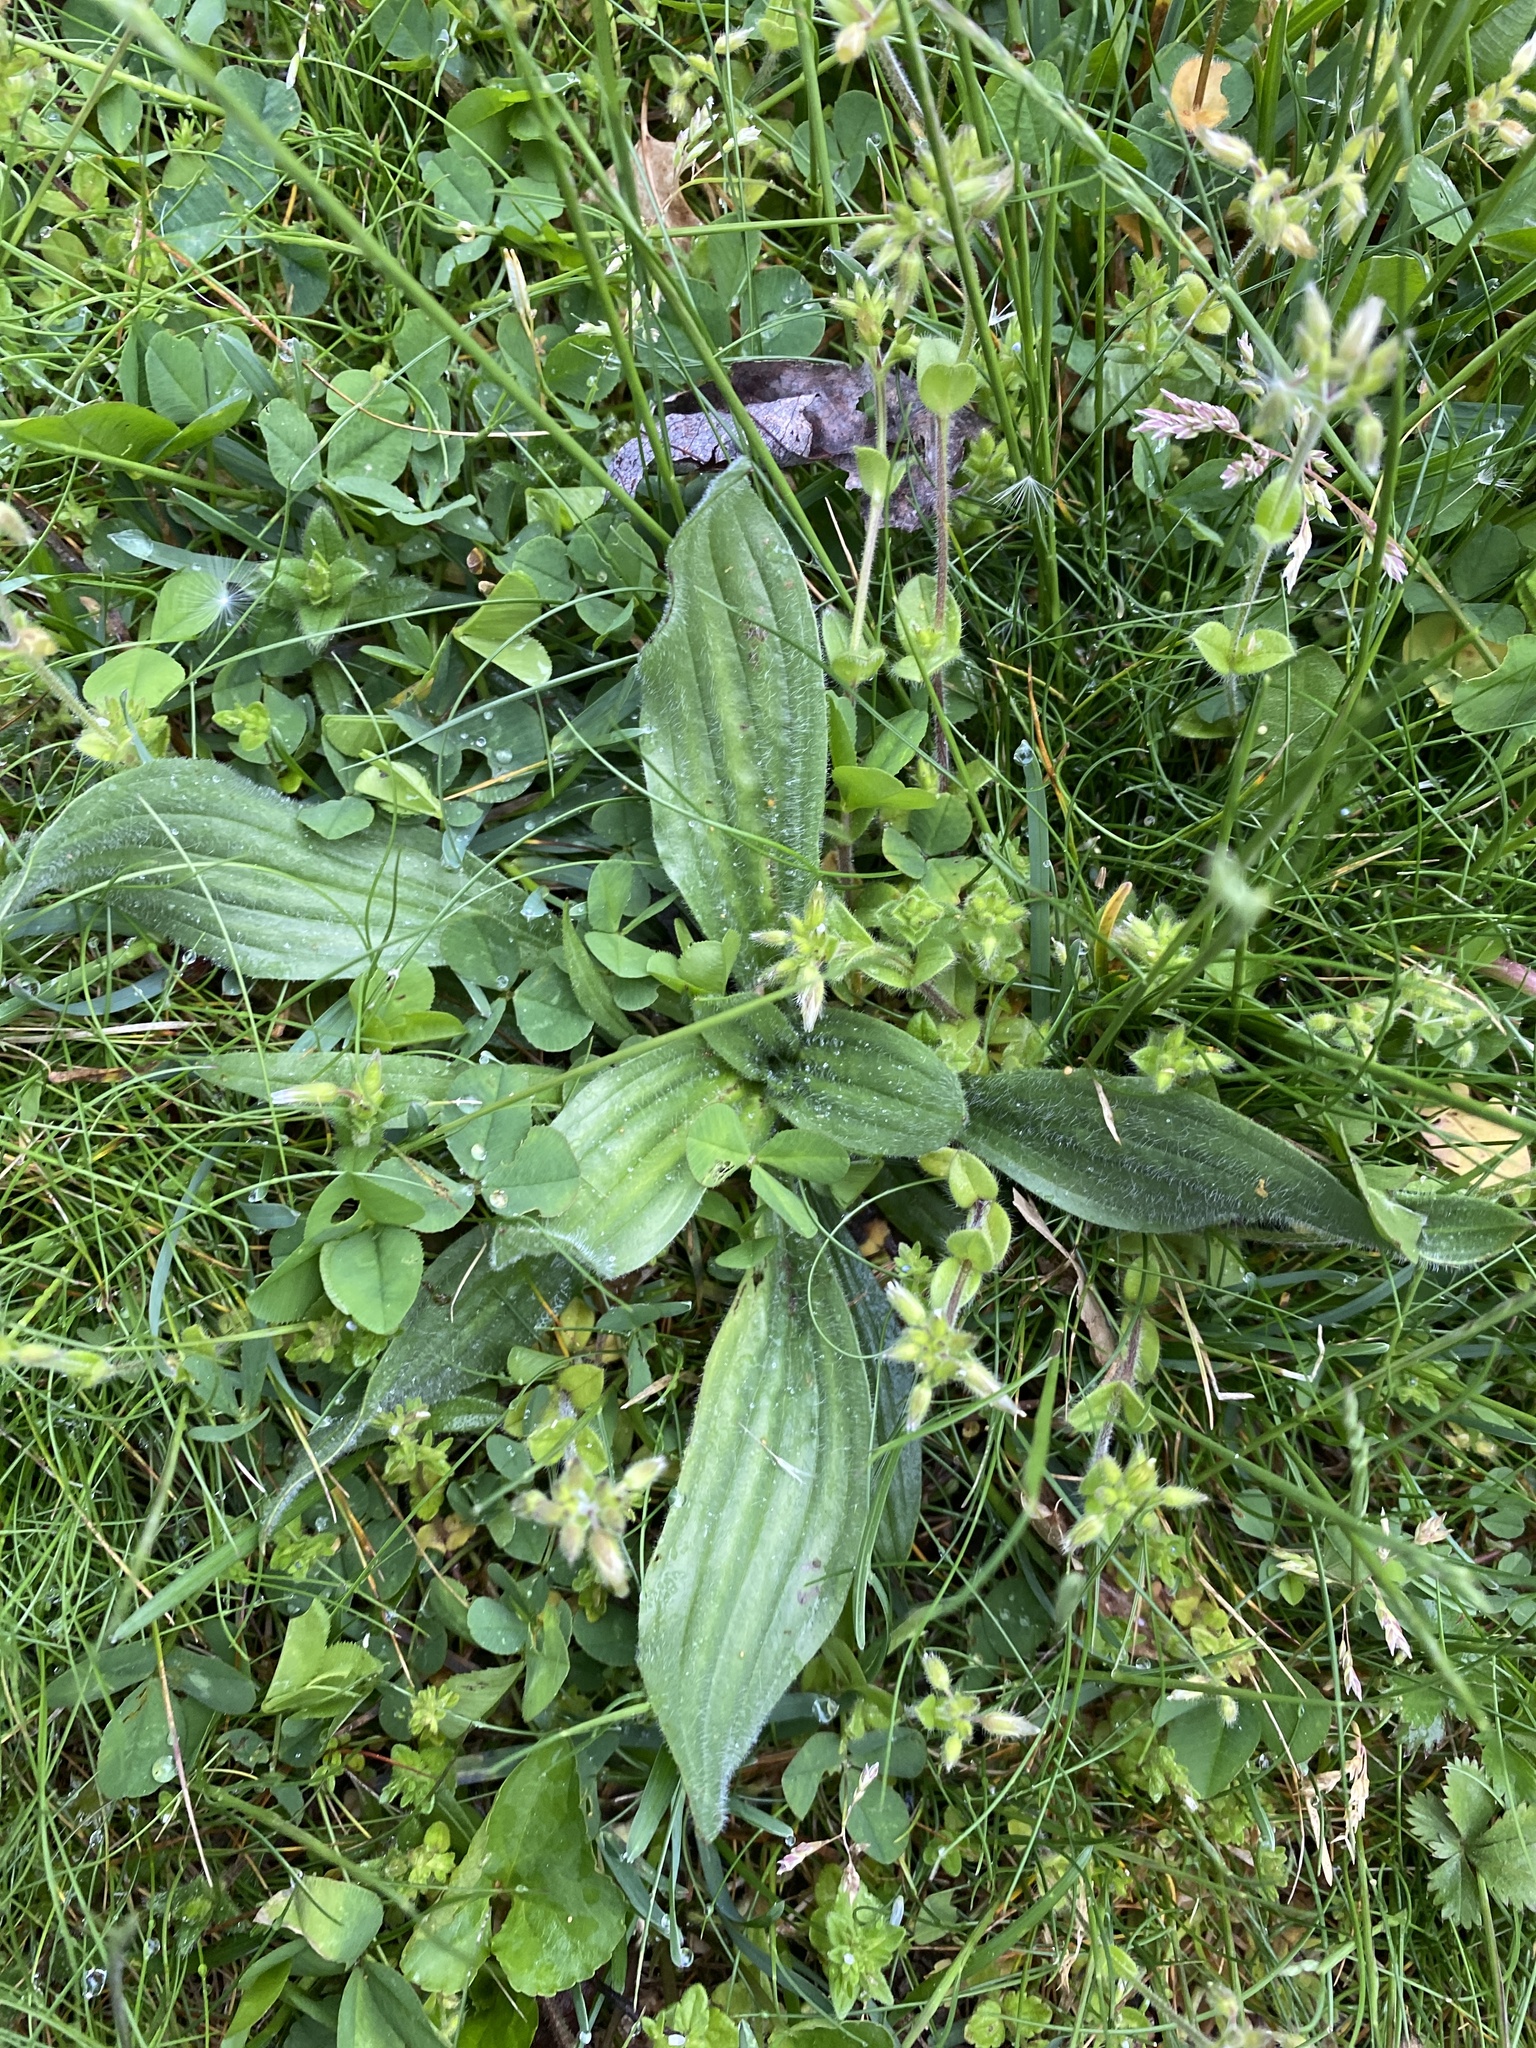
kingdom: Plantae
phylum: Tracheophyta
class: Magnoliopsida
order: Lamiales
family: Plantaginaceae
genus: Plantago
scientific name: Plantago lanceolata
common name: Ribwort plantain
